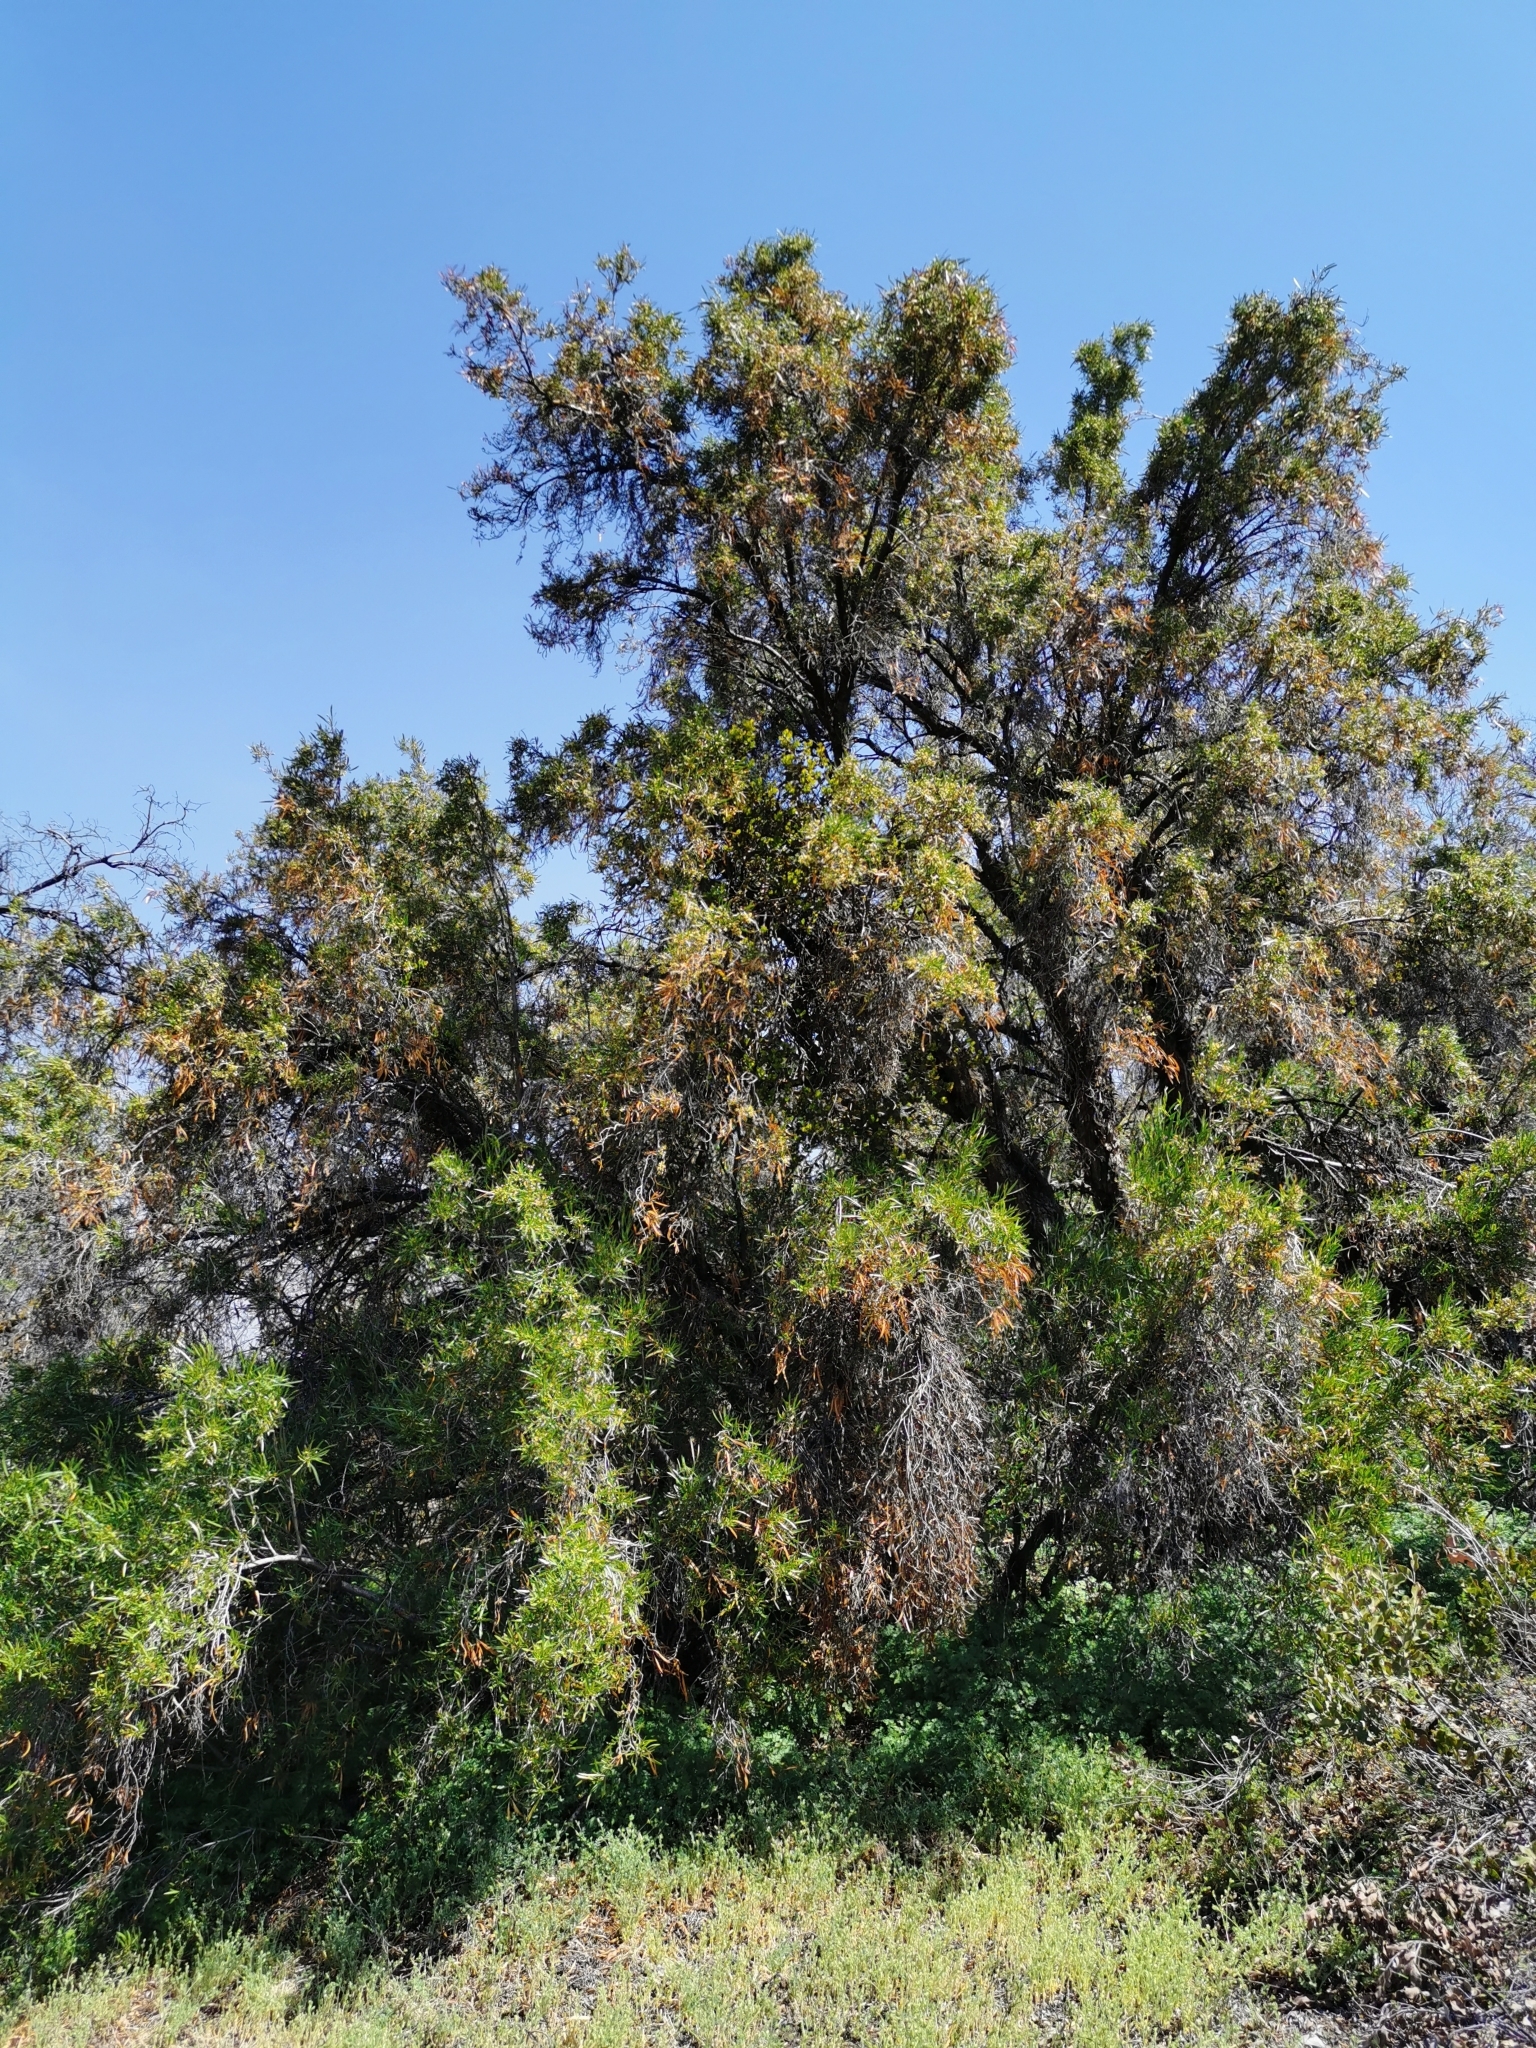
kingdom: Plantae
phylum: Tracheophyta
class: Magnoliopsida
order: Rosales
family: Rosaceae
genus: Kageneckia
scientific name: Kageneckia angustifolia
